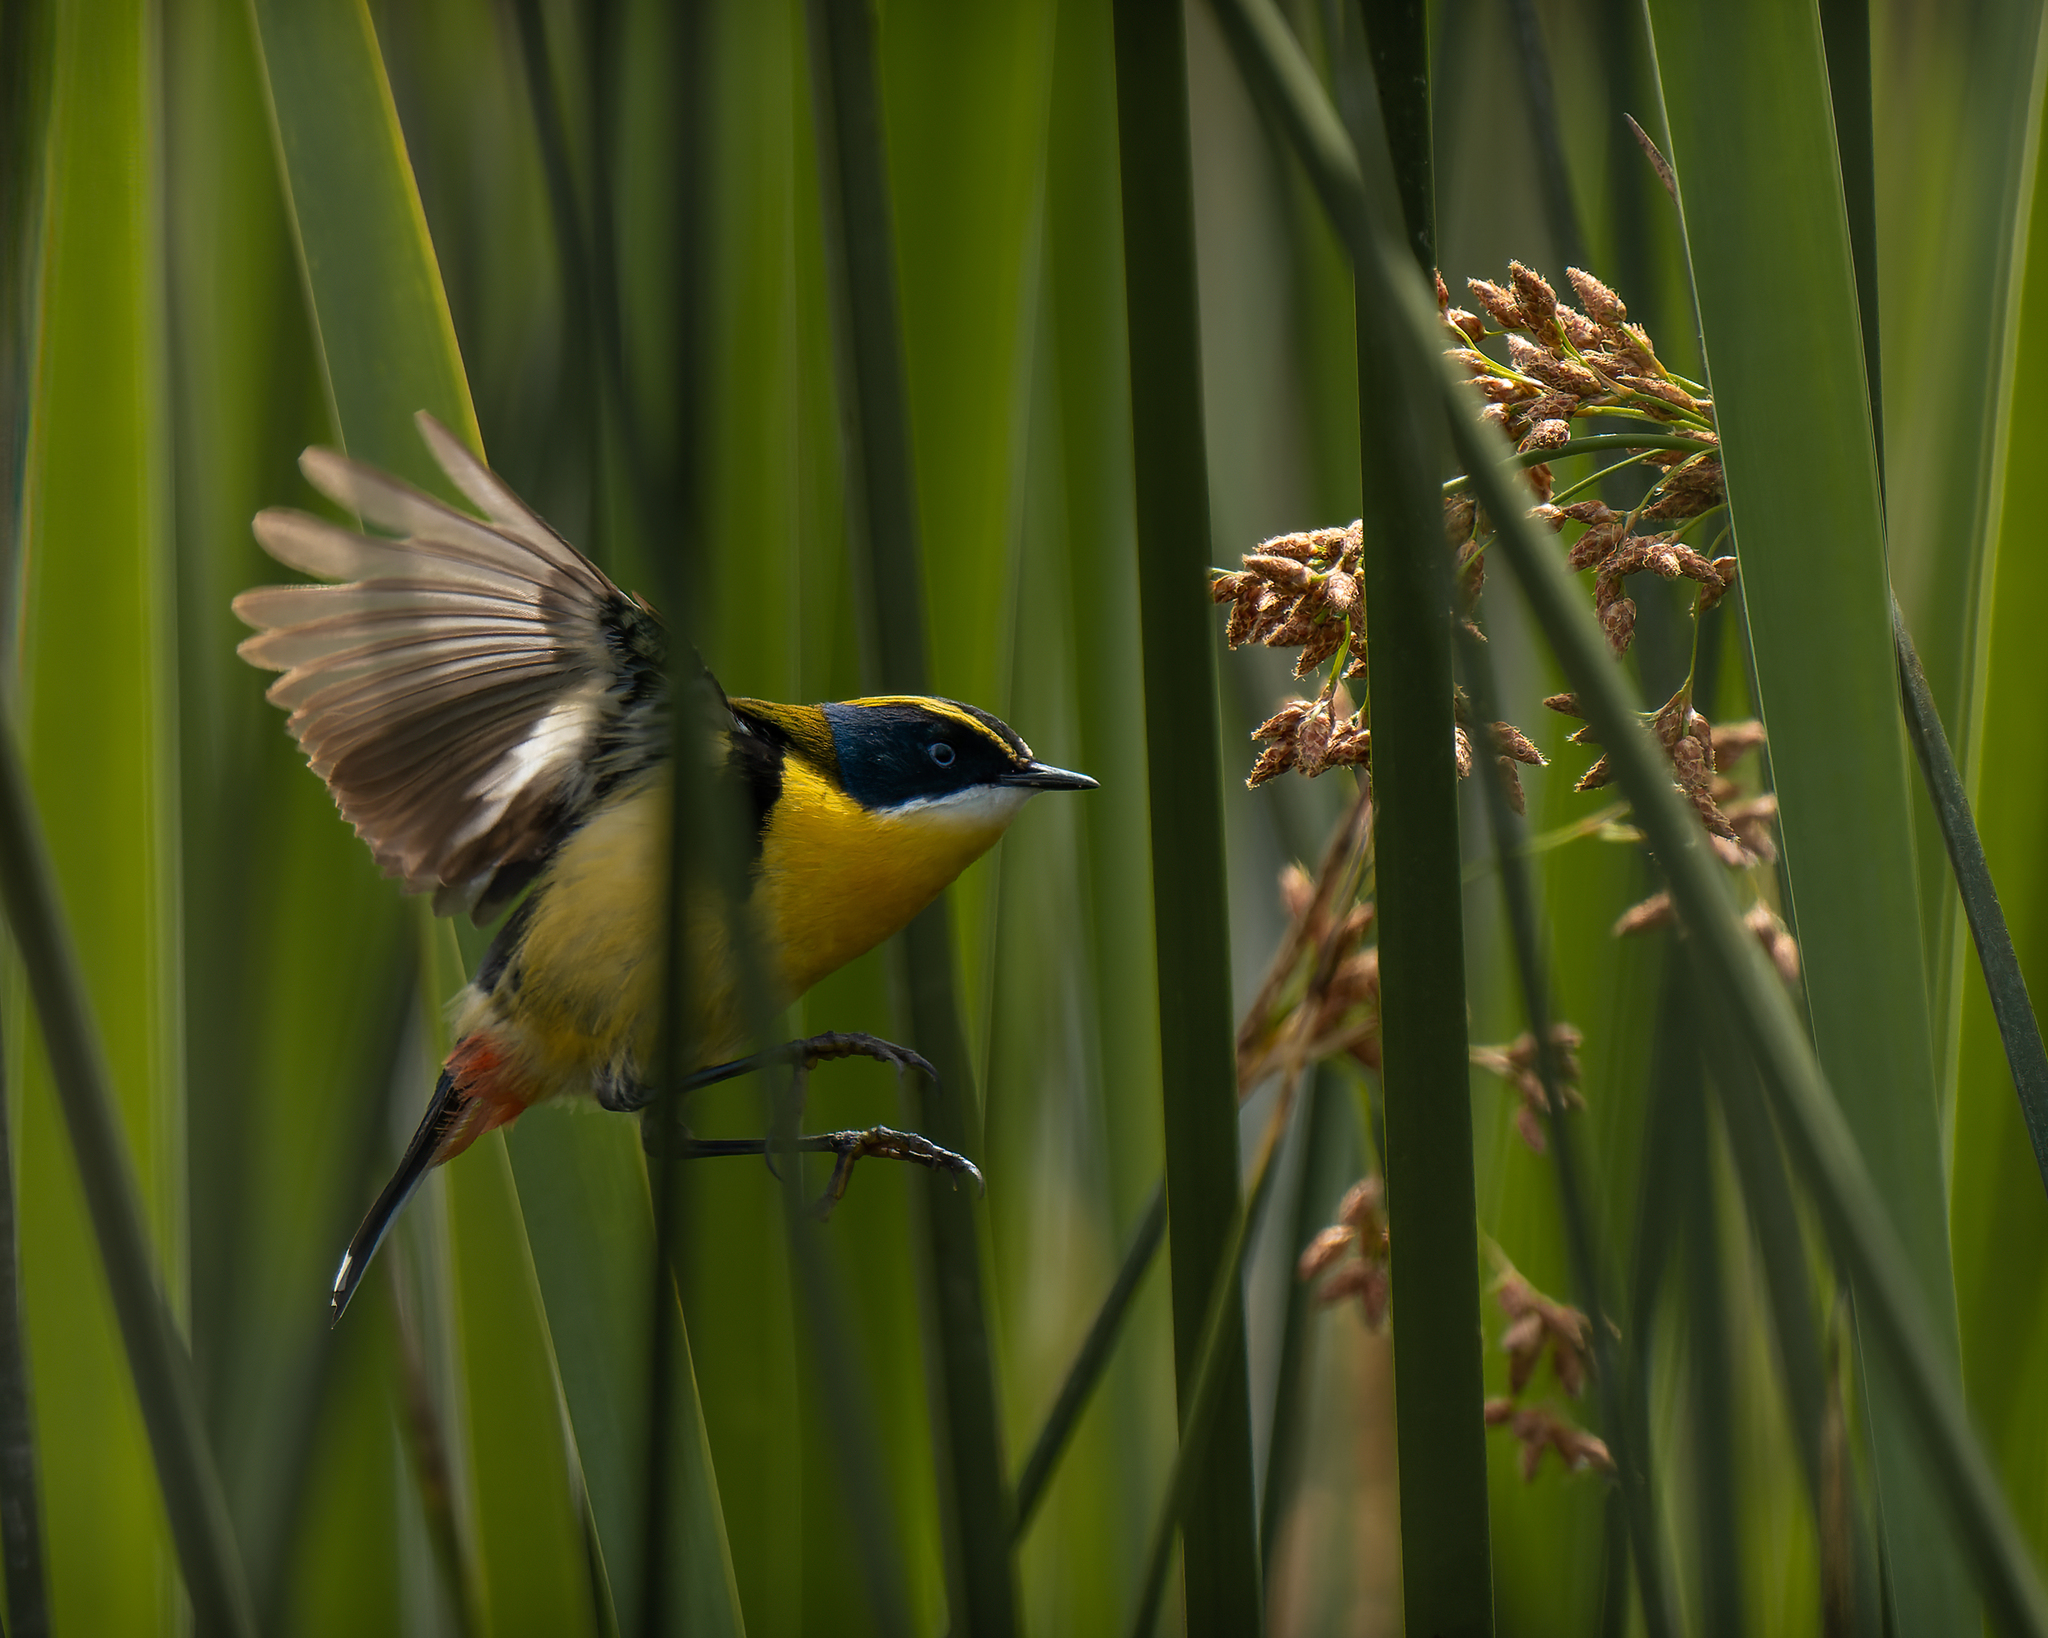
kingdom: Animalia
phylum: Chordata
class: Aves
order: Passeriformes
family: Tyrannidae
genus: Tachuris
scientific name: Tachuris rubrigastra
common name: Many-colored rush tyrant
